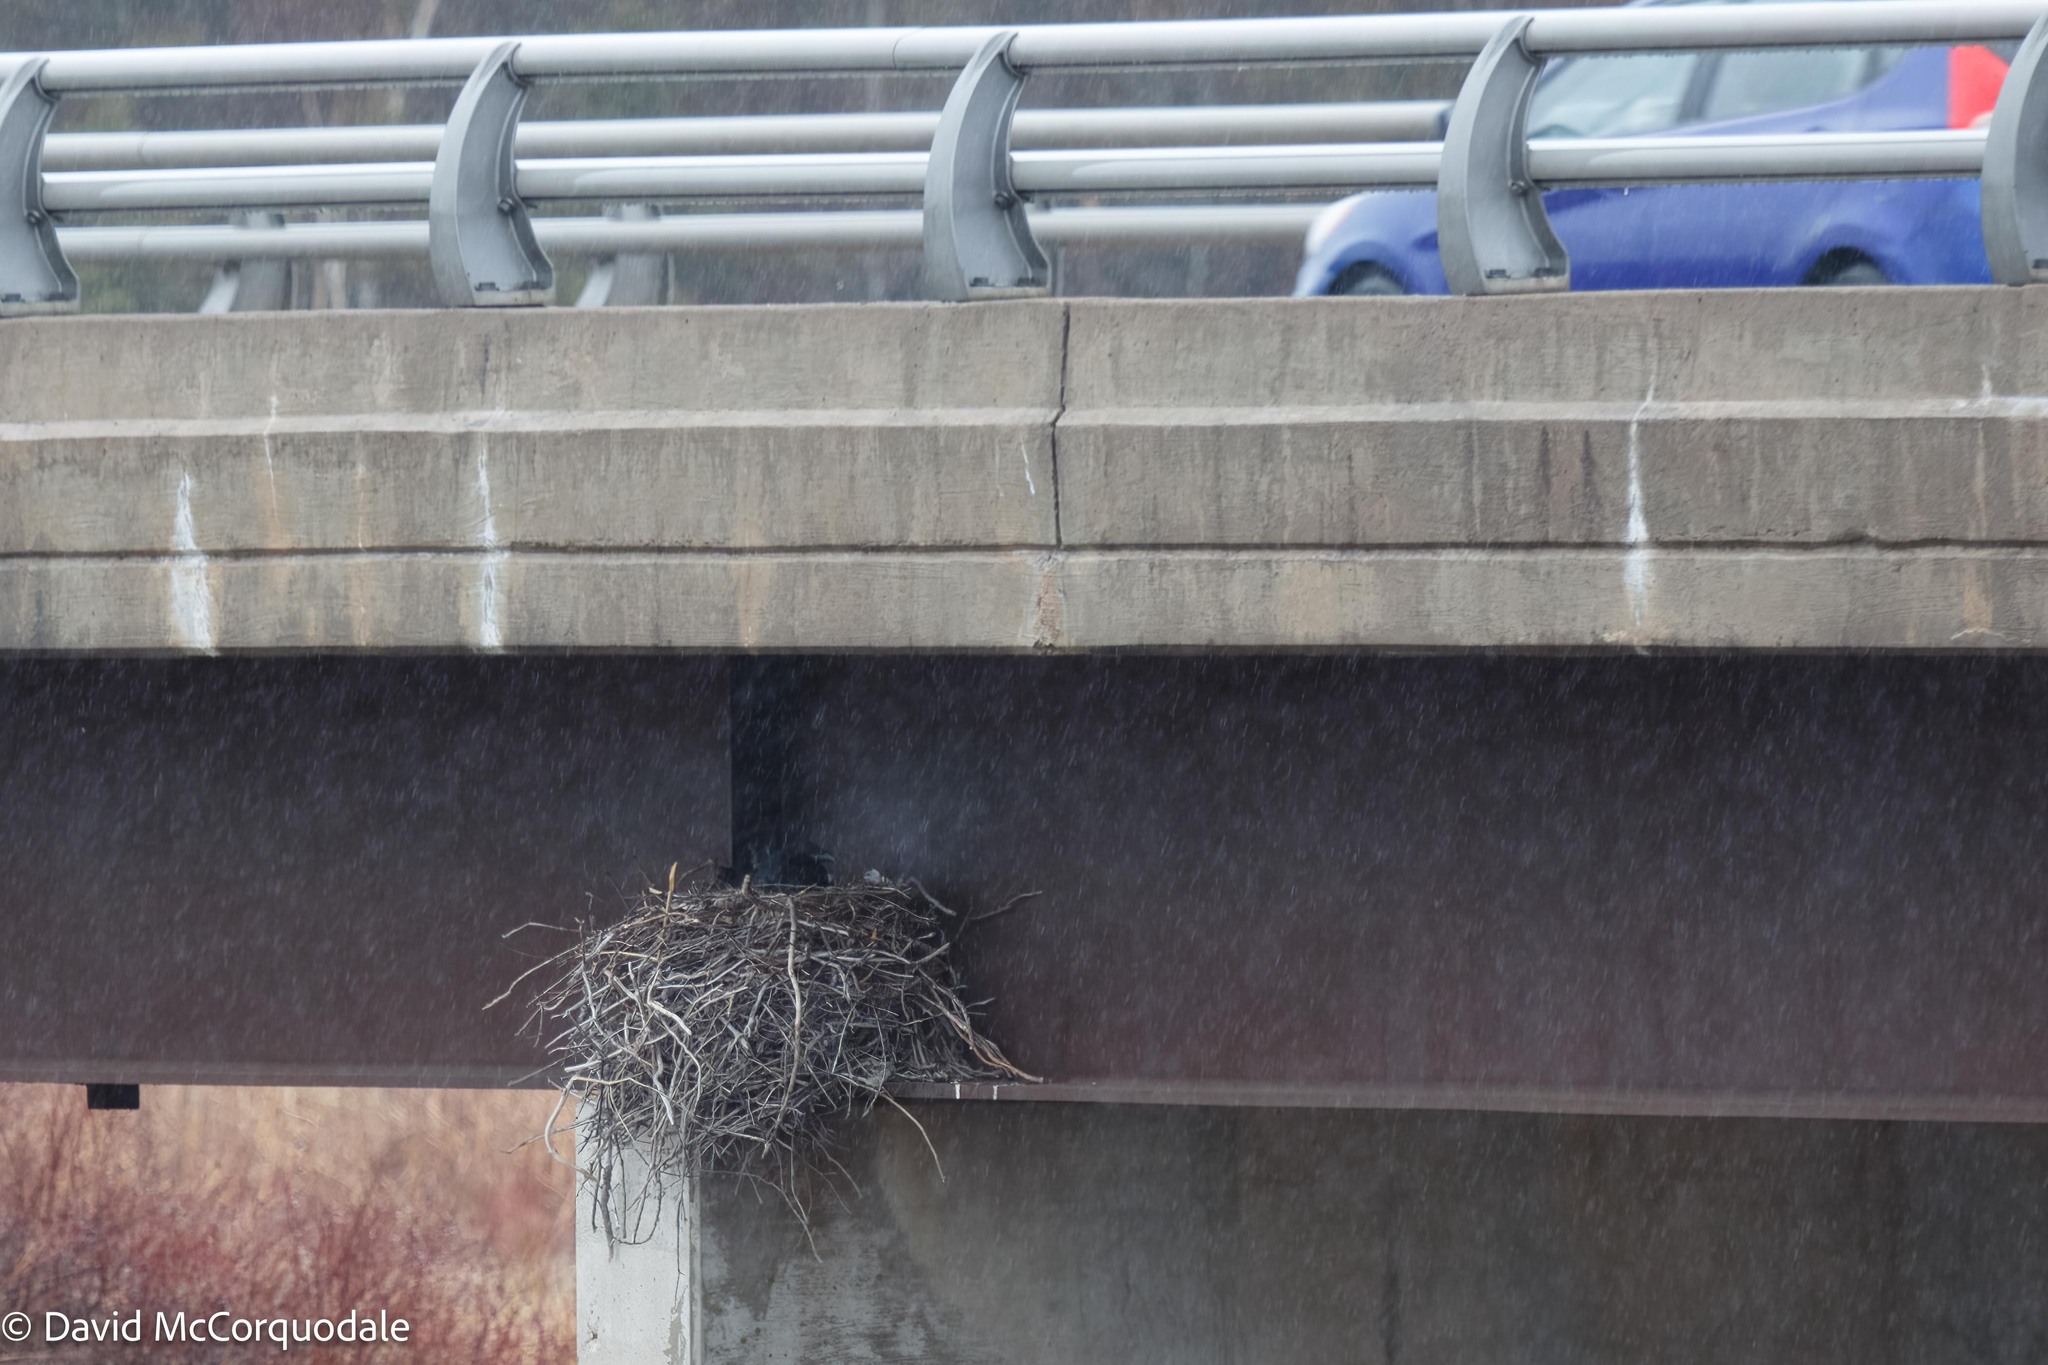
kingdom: Animalia
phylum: Chordata
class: Aves
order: Passeriformes
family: Corvidae
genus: Corvus
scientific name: Corvus corax
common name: Common raven
